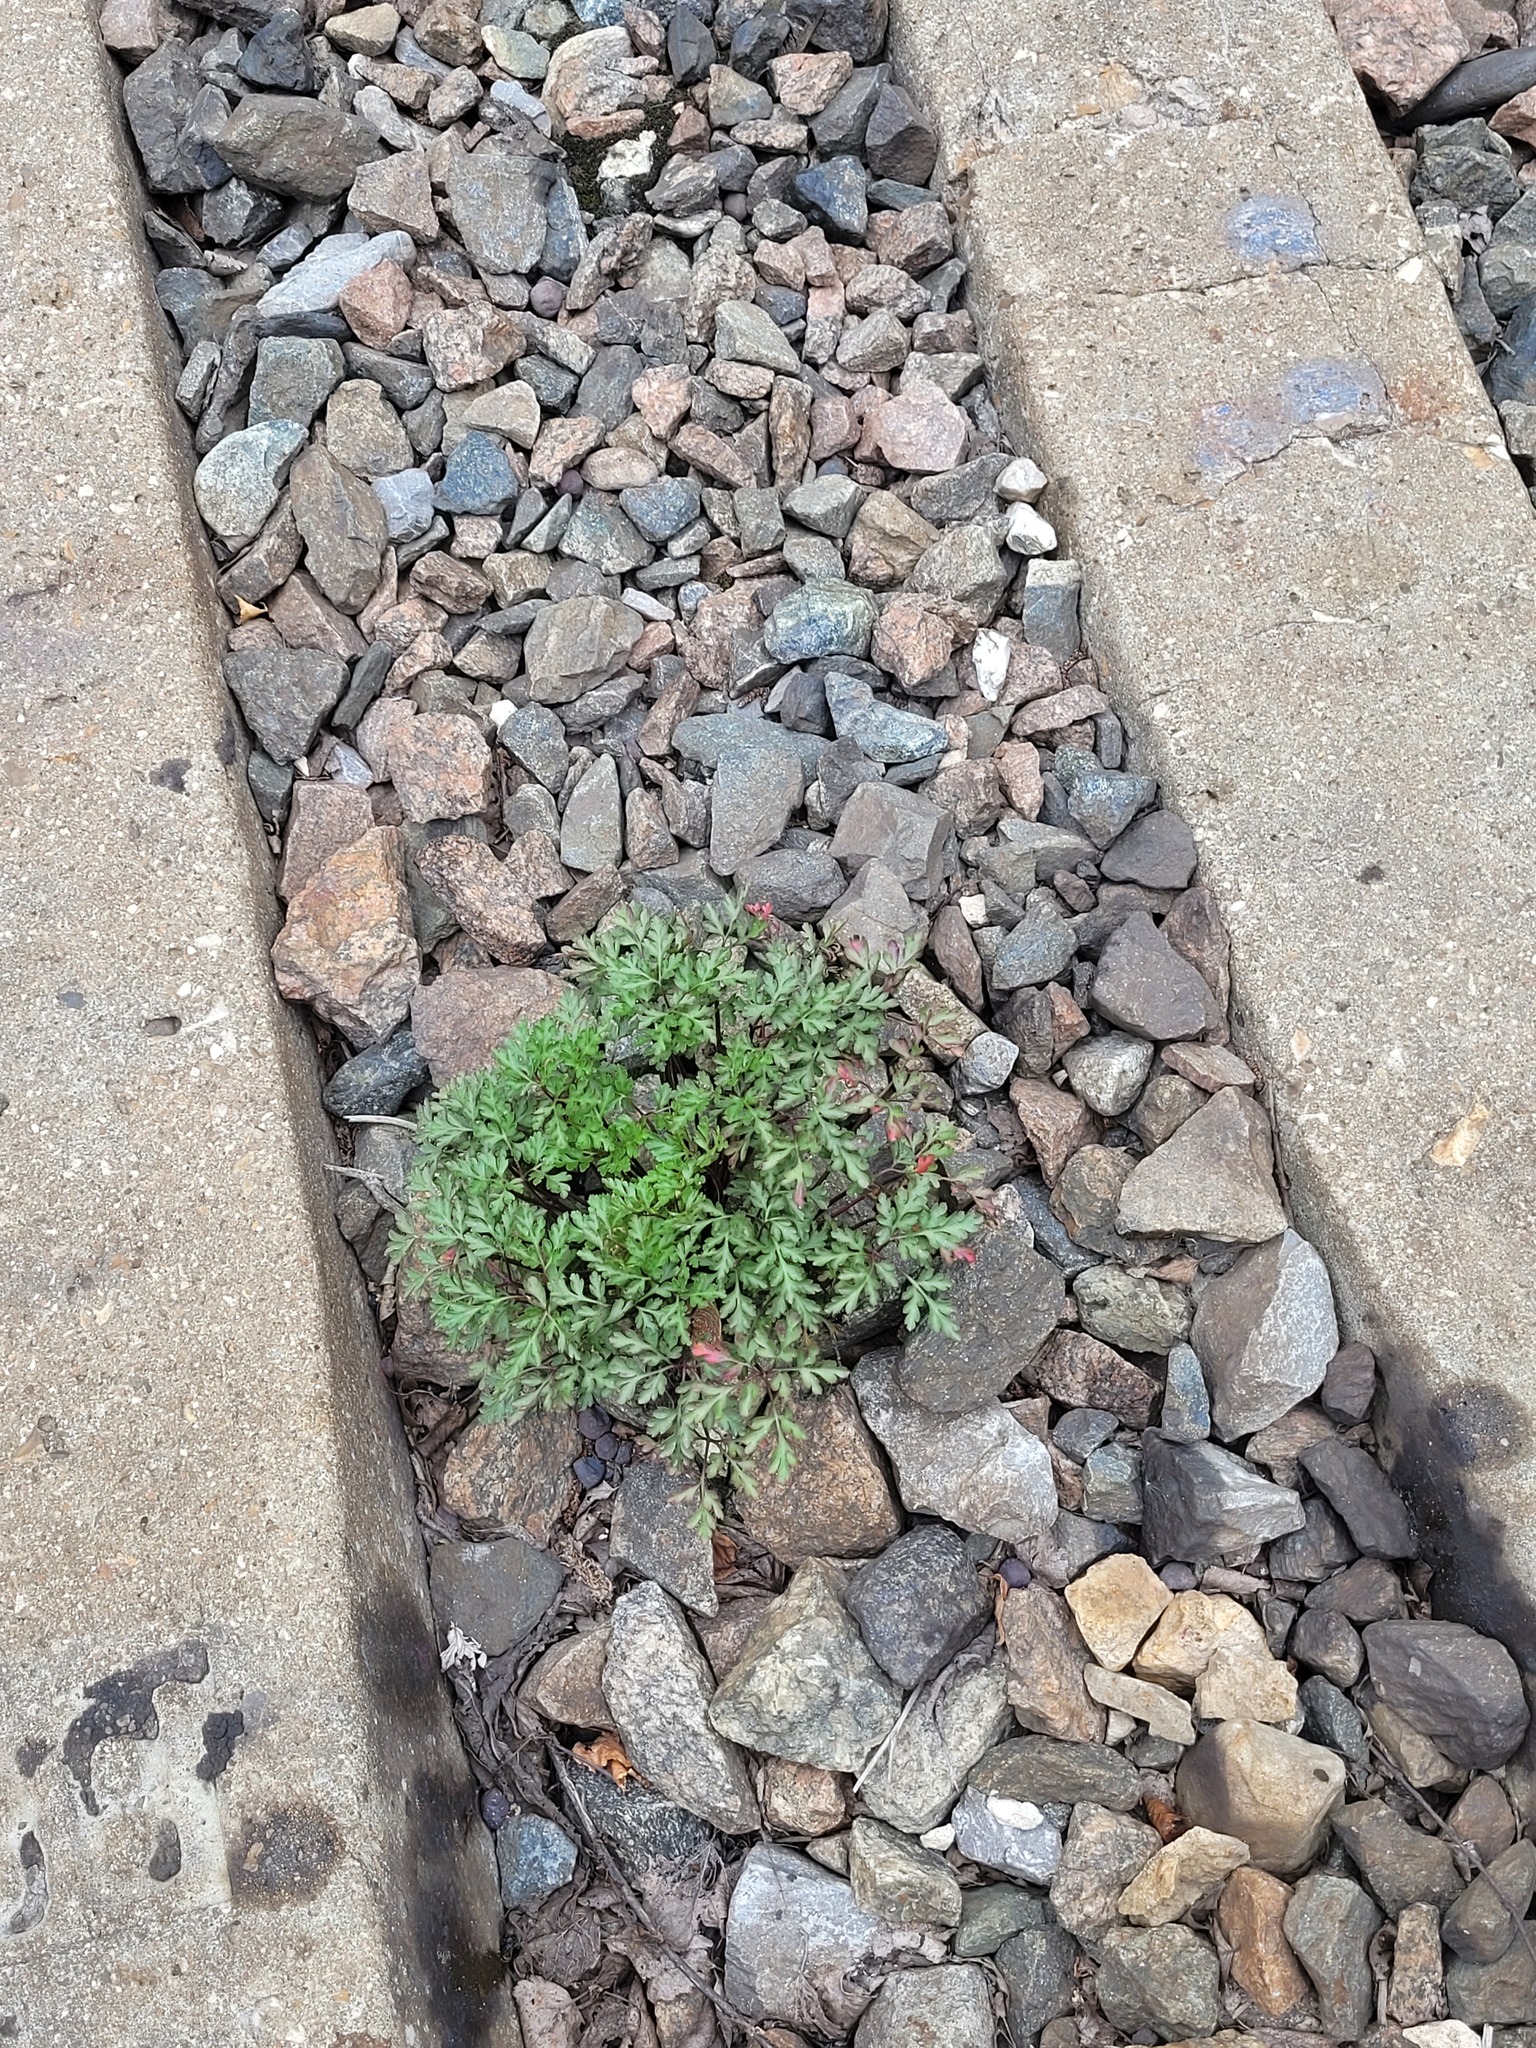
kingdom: Plantae
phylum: Tracheophyta
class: Magnoliopsida
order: Geraniales
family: Geraniaceae
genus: Geranium
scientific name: Geranium robertianum
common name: Herb-robert
